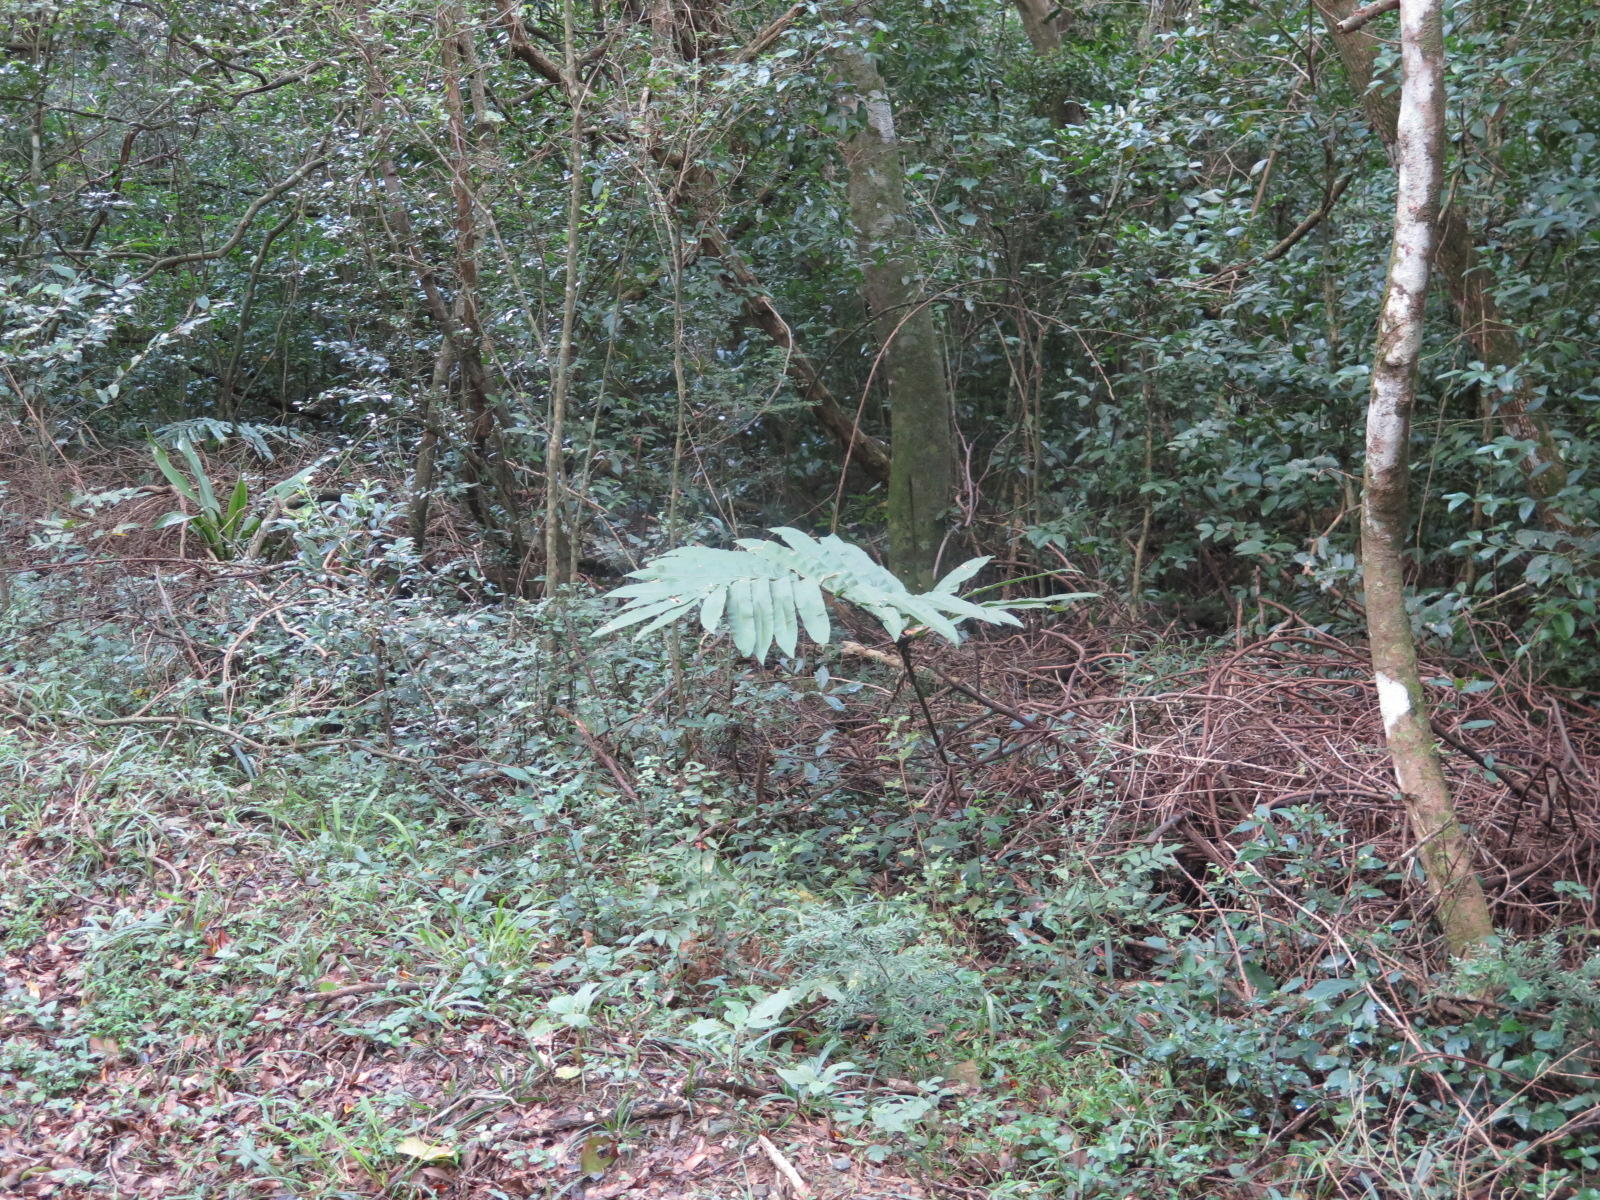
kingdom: Plantae
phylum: Tracheophyta
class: Cycadopsida
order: Cycadales
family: Zamiaceae
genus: Stangeria
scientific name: Stangeria eriopus
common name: Natal grass cycad
